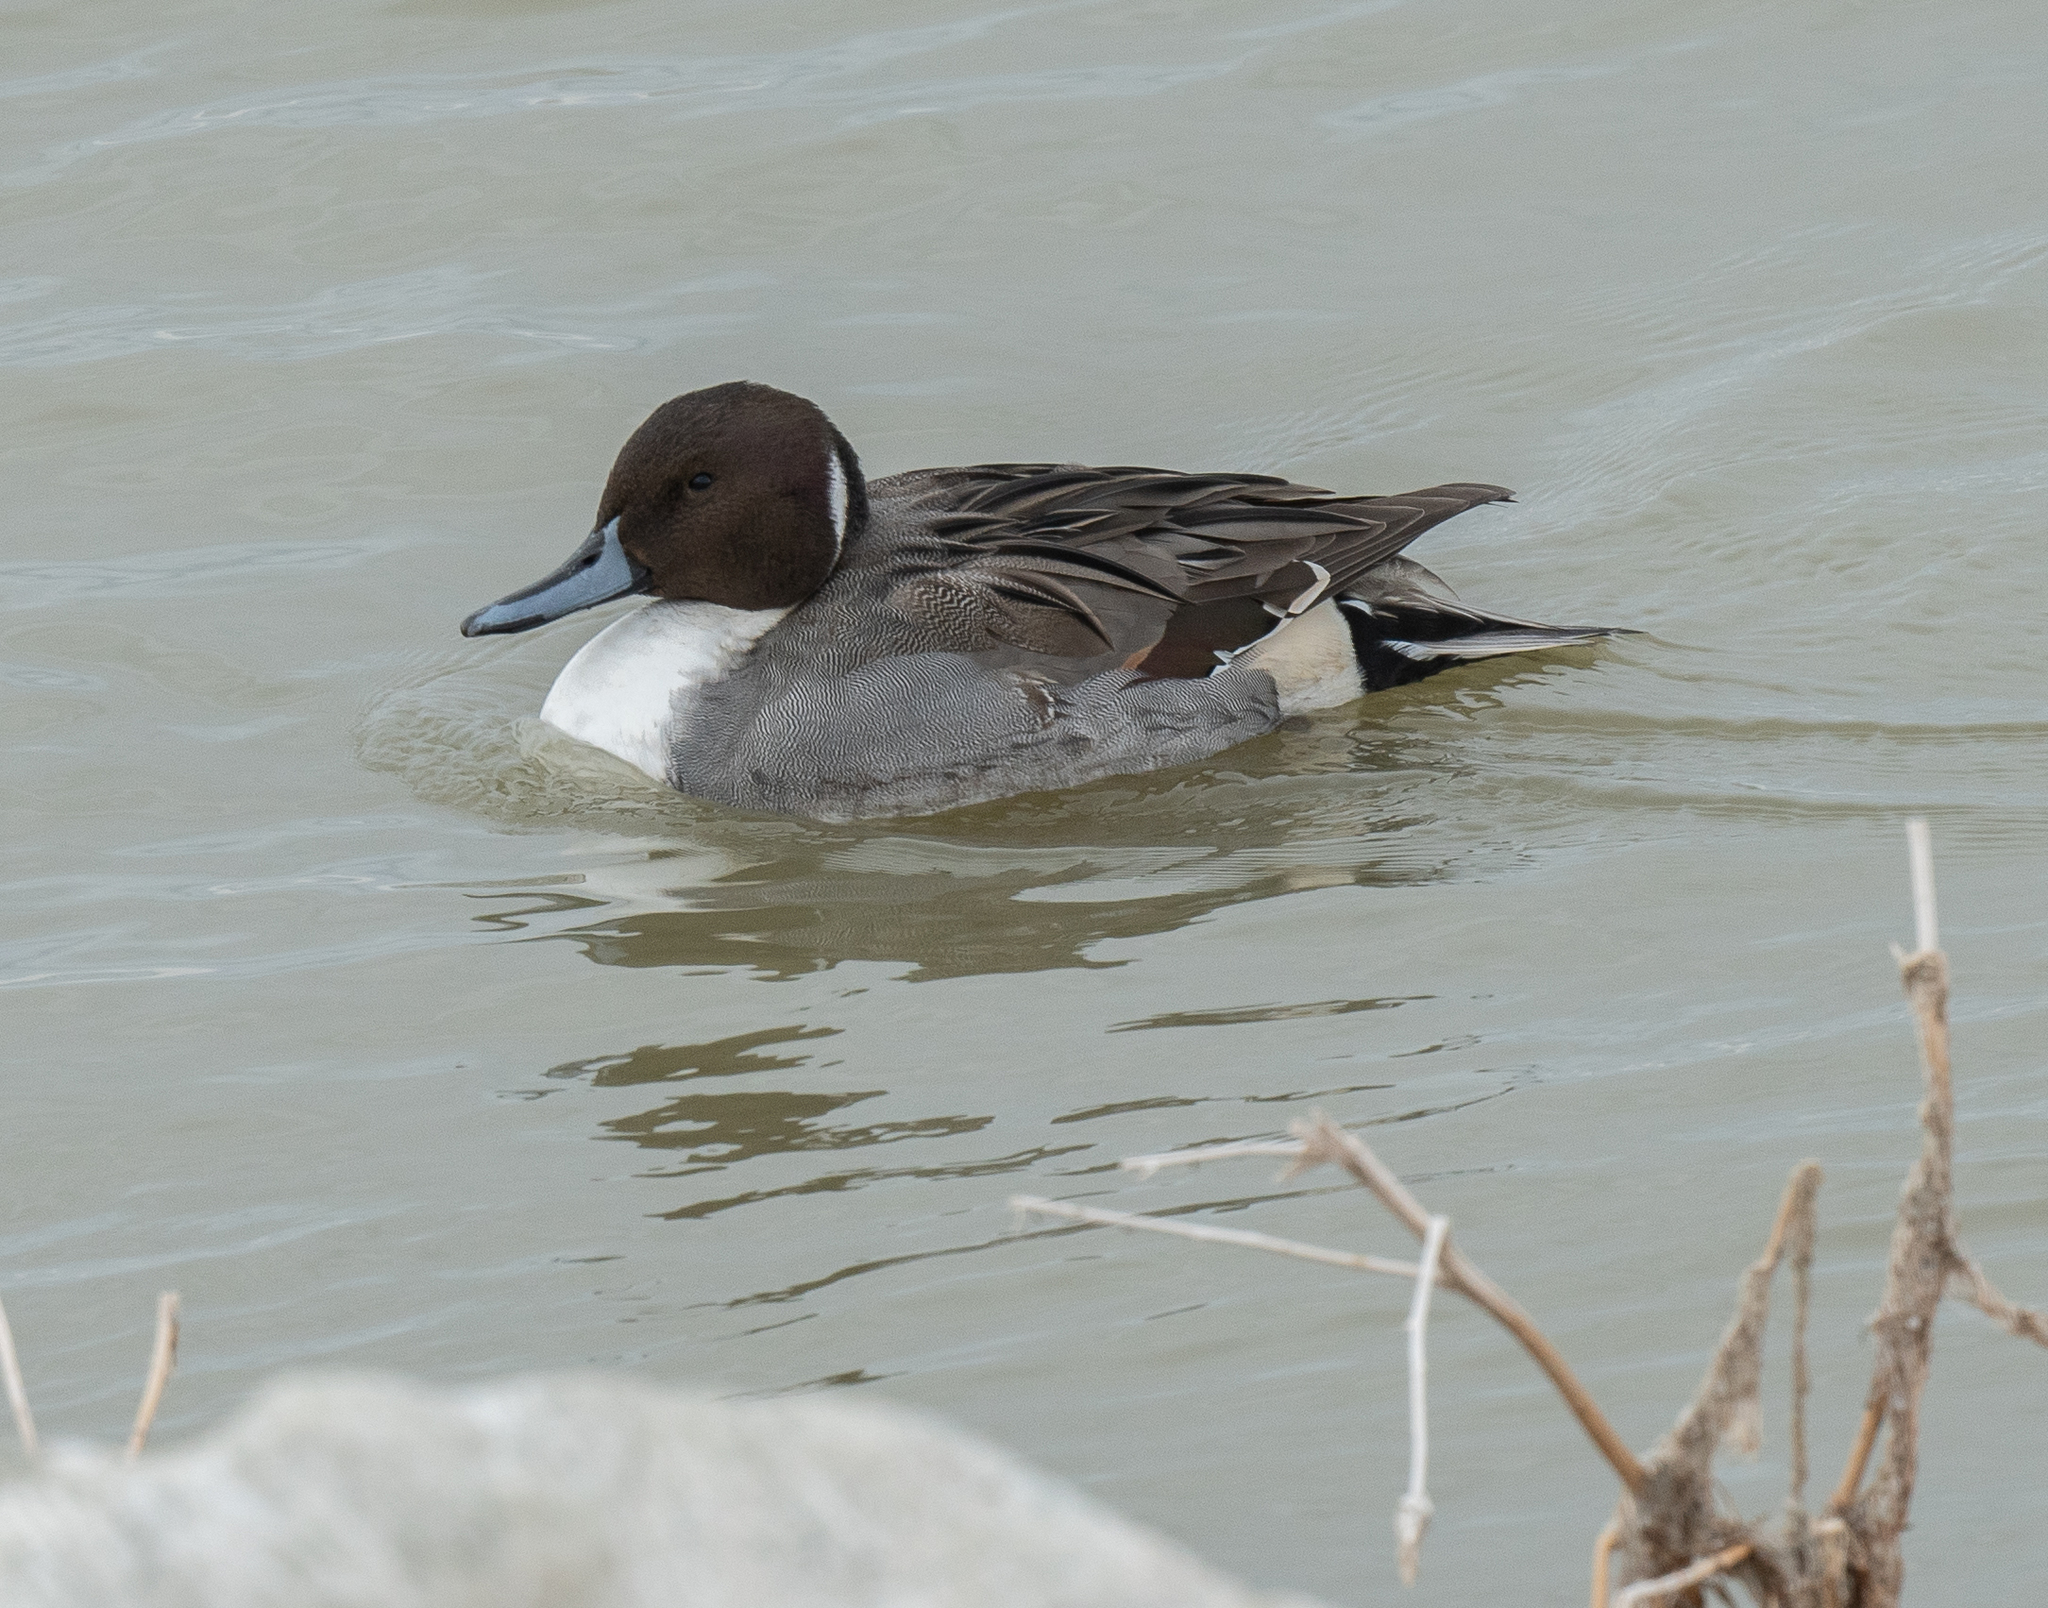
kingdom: Animalia
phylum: Chordata
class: Aves
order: Anseriformes
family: Anatidae
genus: Anas
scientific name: Anas acuta
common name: Northern pintail
